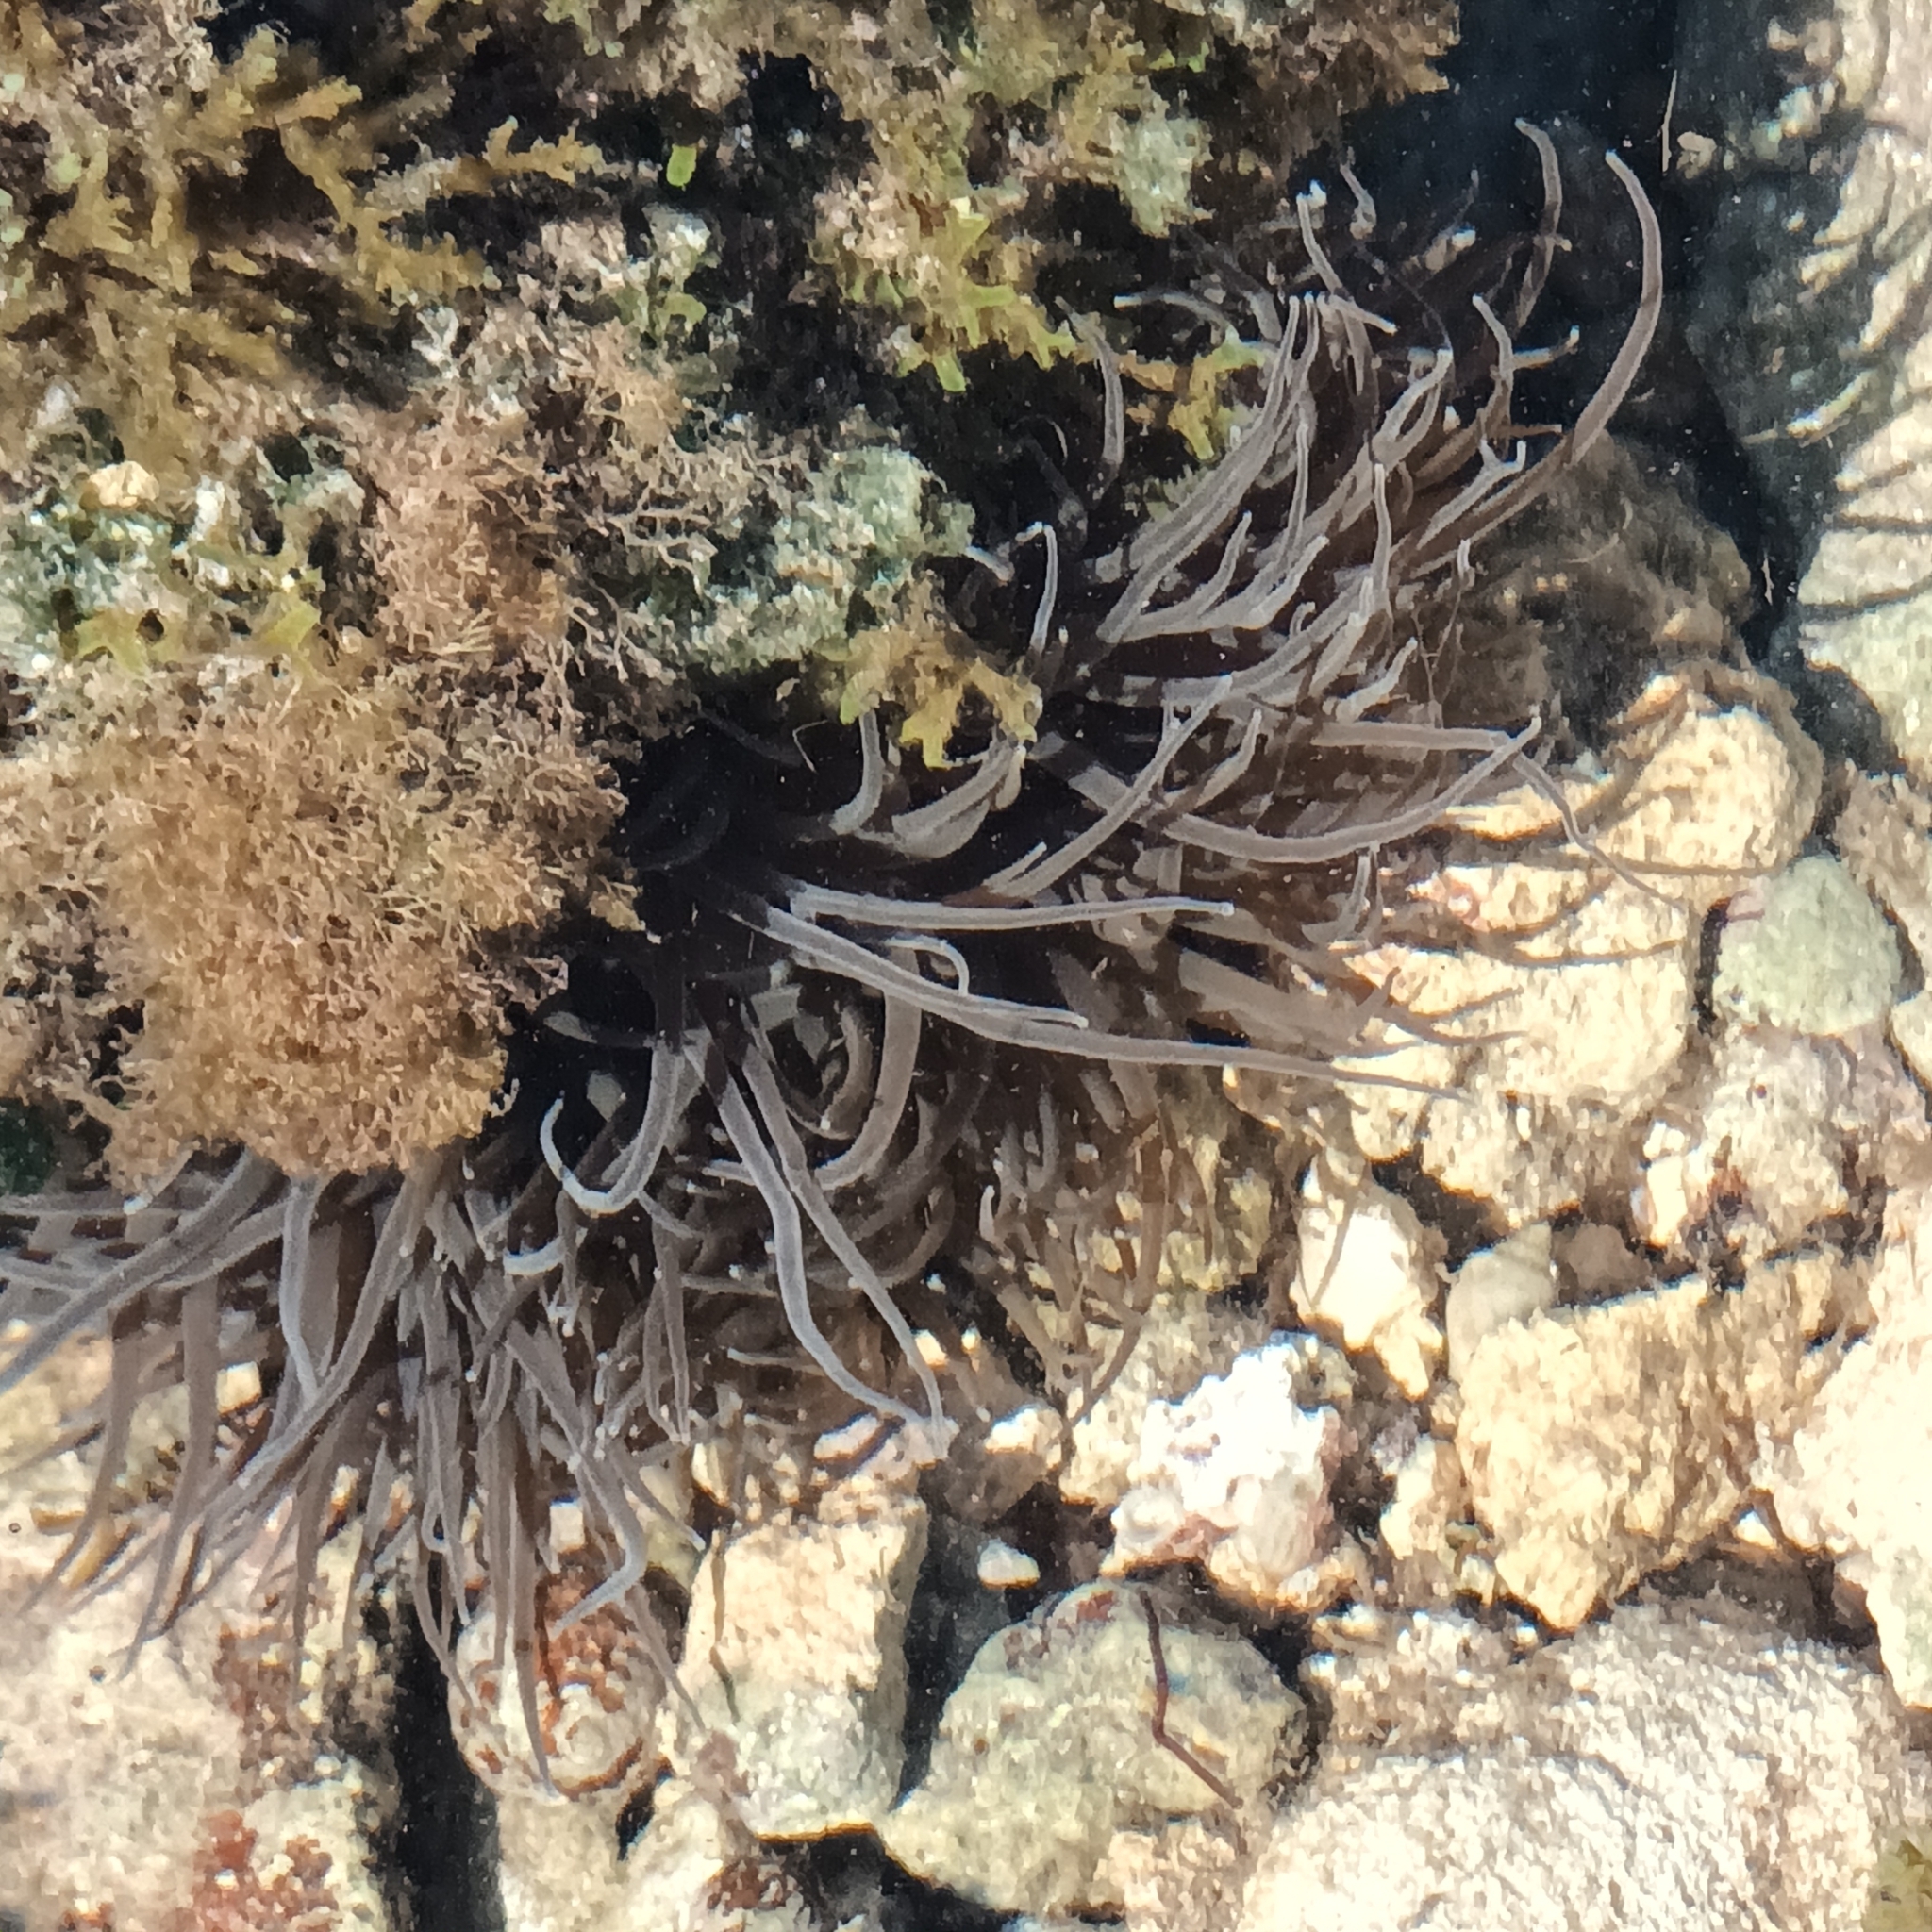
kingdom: Animalia
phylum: Cnidaria
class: Anthozoa
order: Actiniaria
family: Actiniidae
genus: Anemonia
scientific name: Anemonia viridis
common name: Snakelocks anemone
